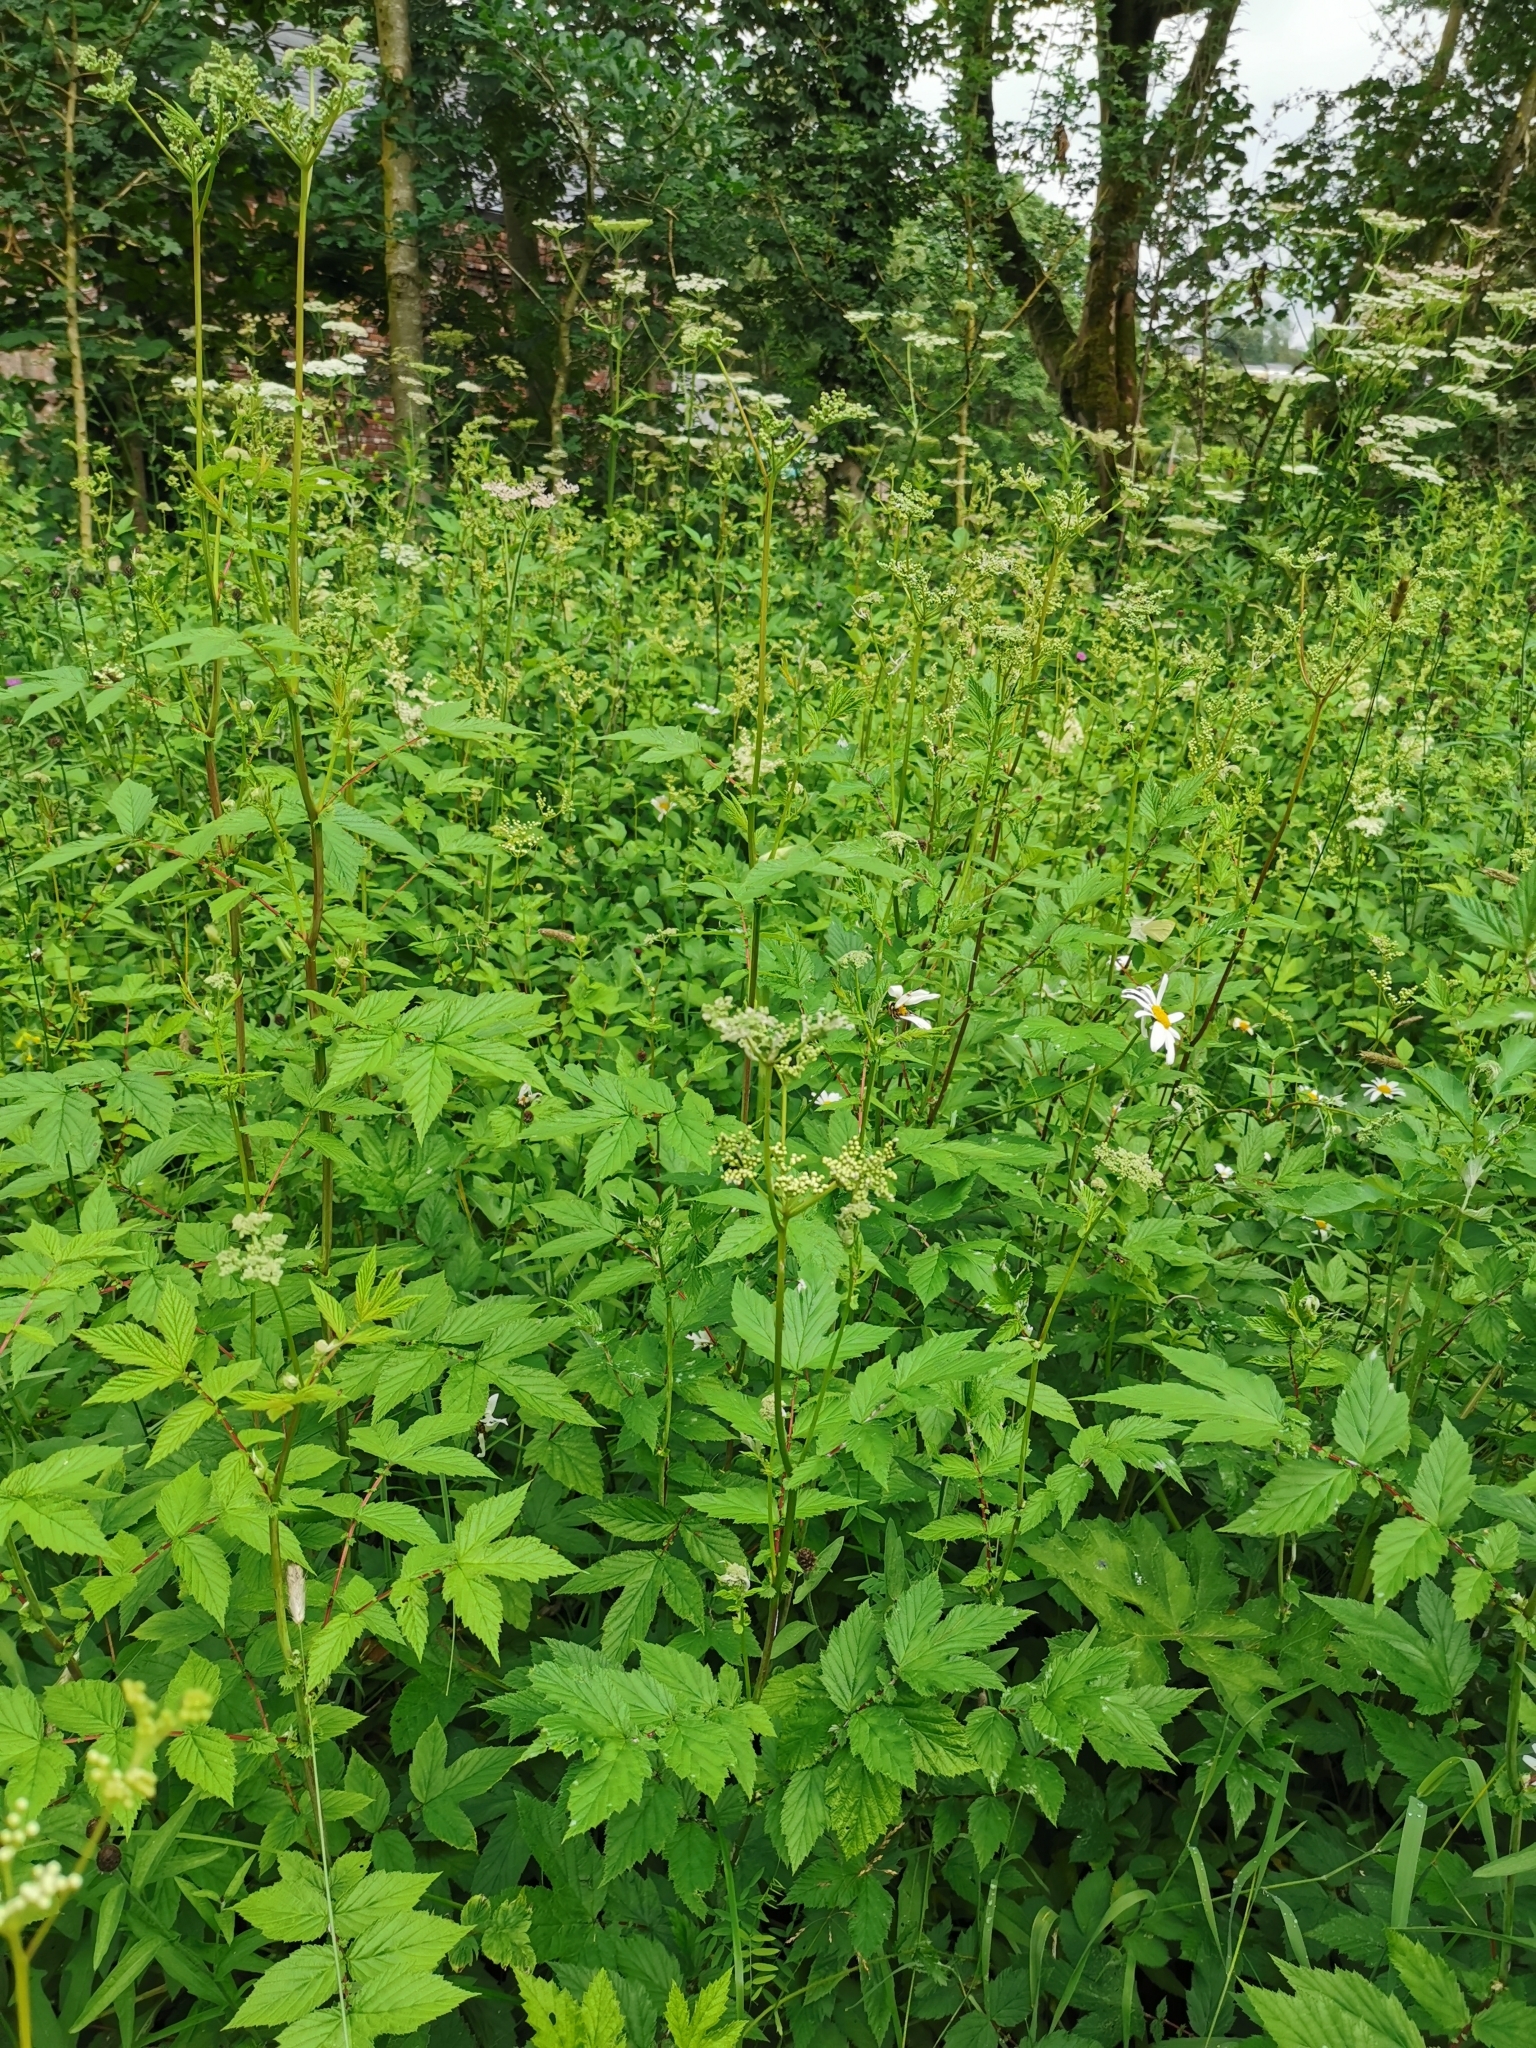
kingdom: Plantae
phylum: Tracheophyta
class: Magnoliopsida
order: Rosales
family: Rosaceae
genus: Filipendula
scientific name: Filipendula ulmaria
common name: Meadowsweet
